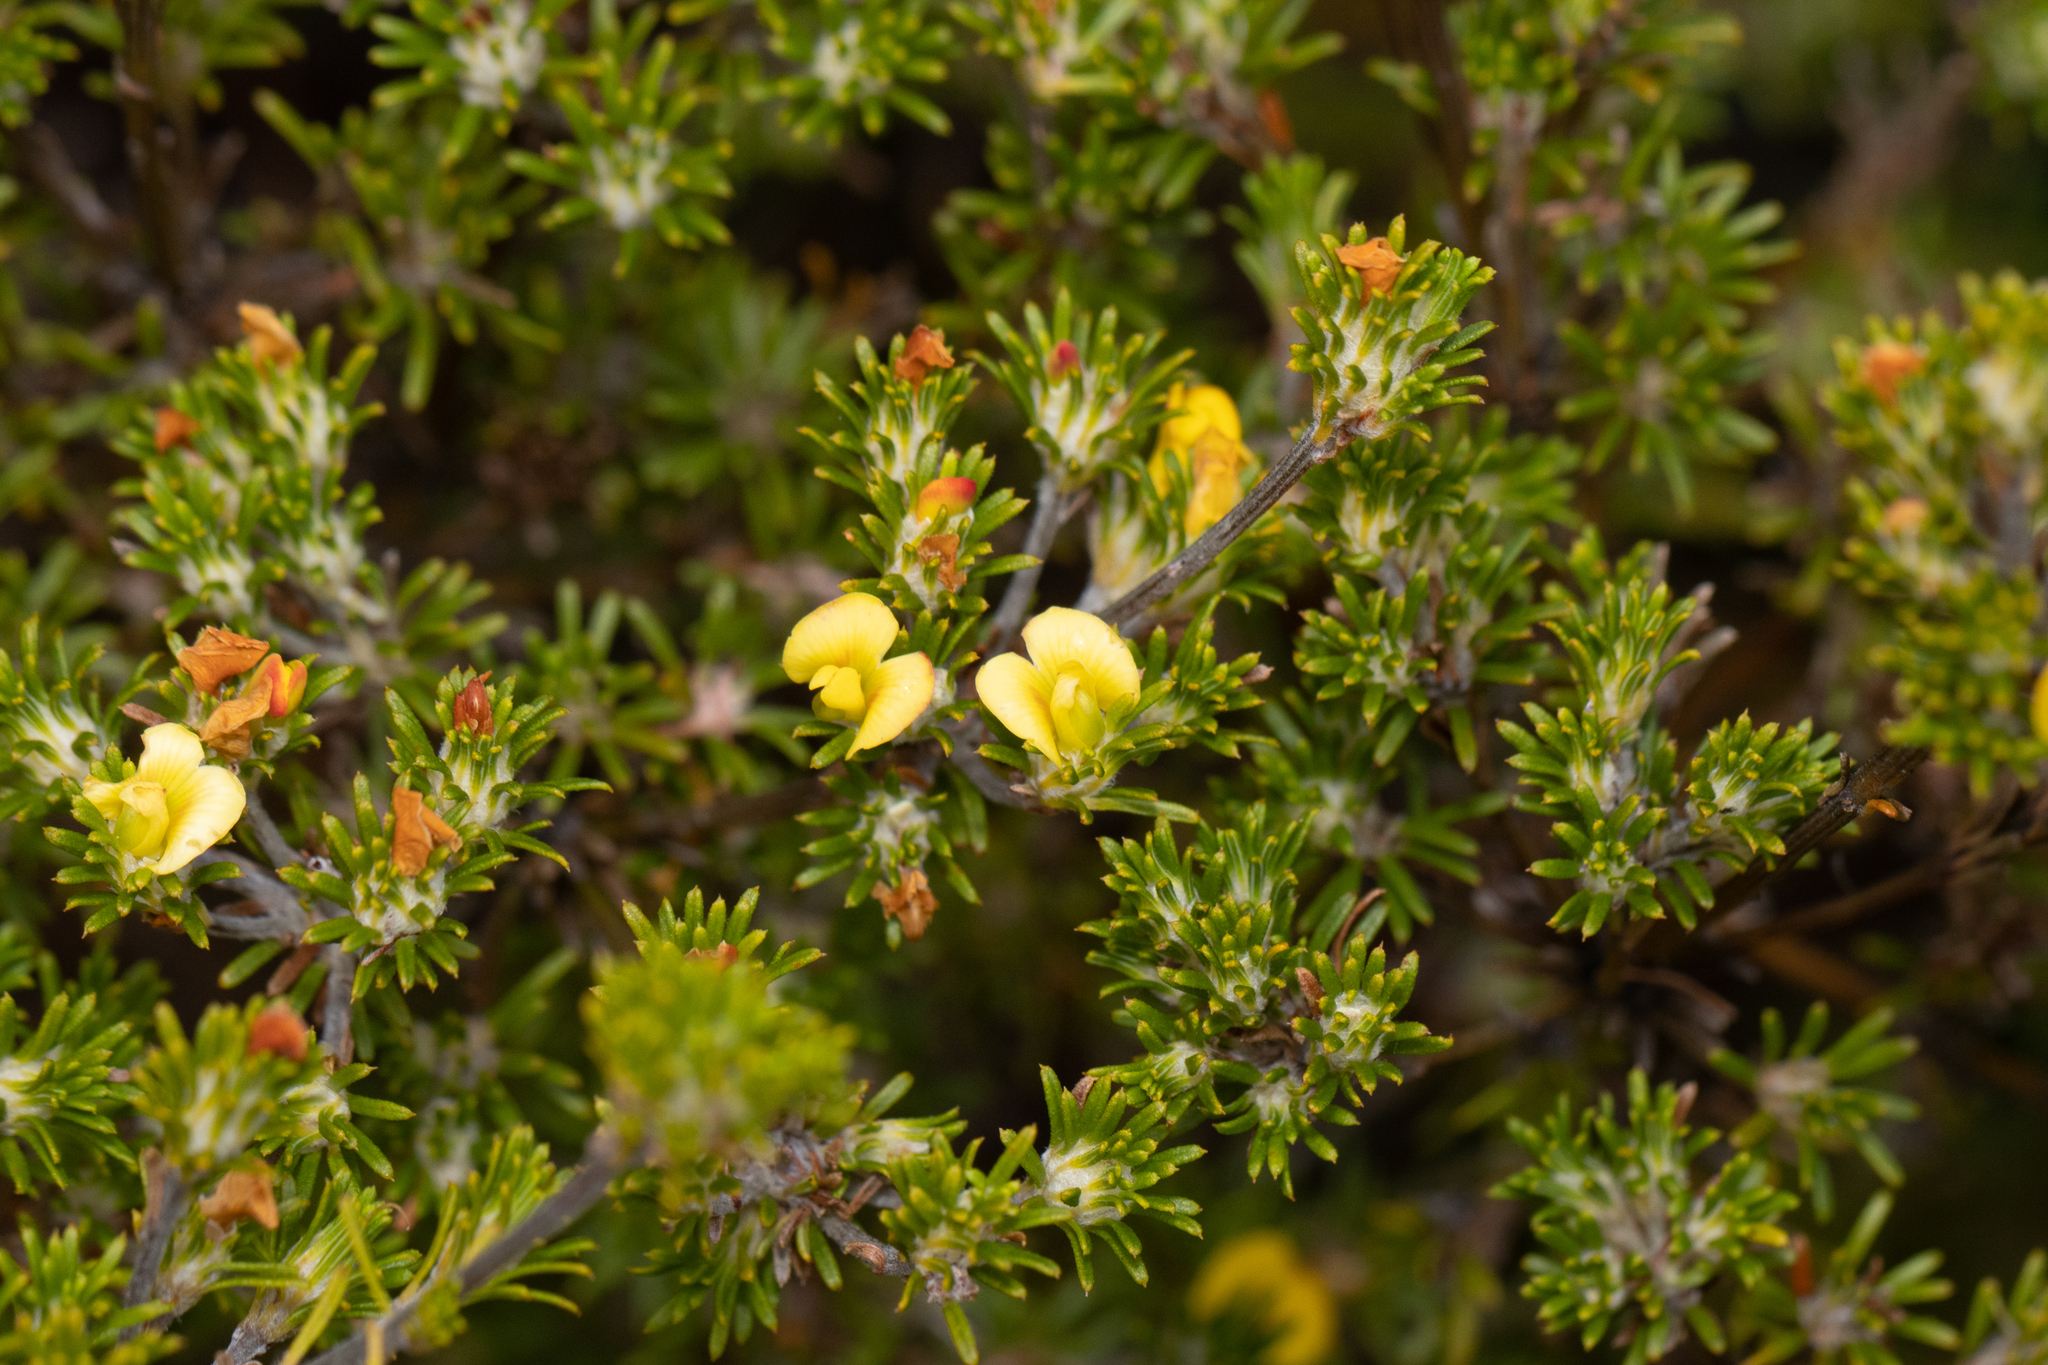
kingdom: Plantae
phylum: Tracheophyta
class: Magnoliopsida
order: Fabales
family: Fabaceae
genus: Phyllota
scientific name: Phyllota pleurandroides
